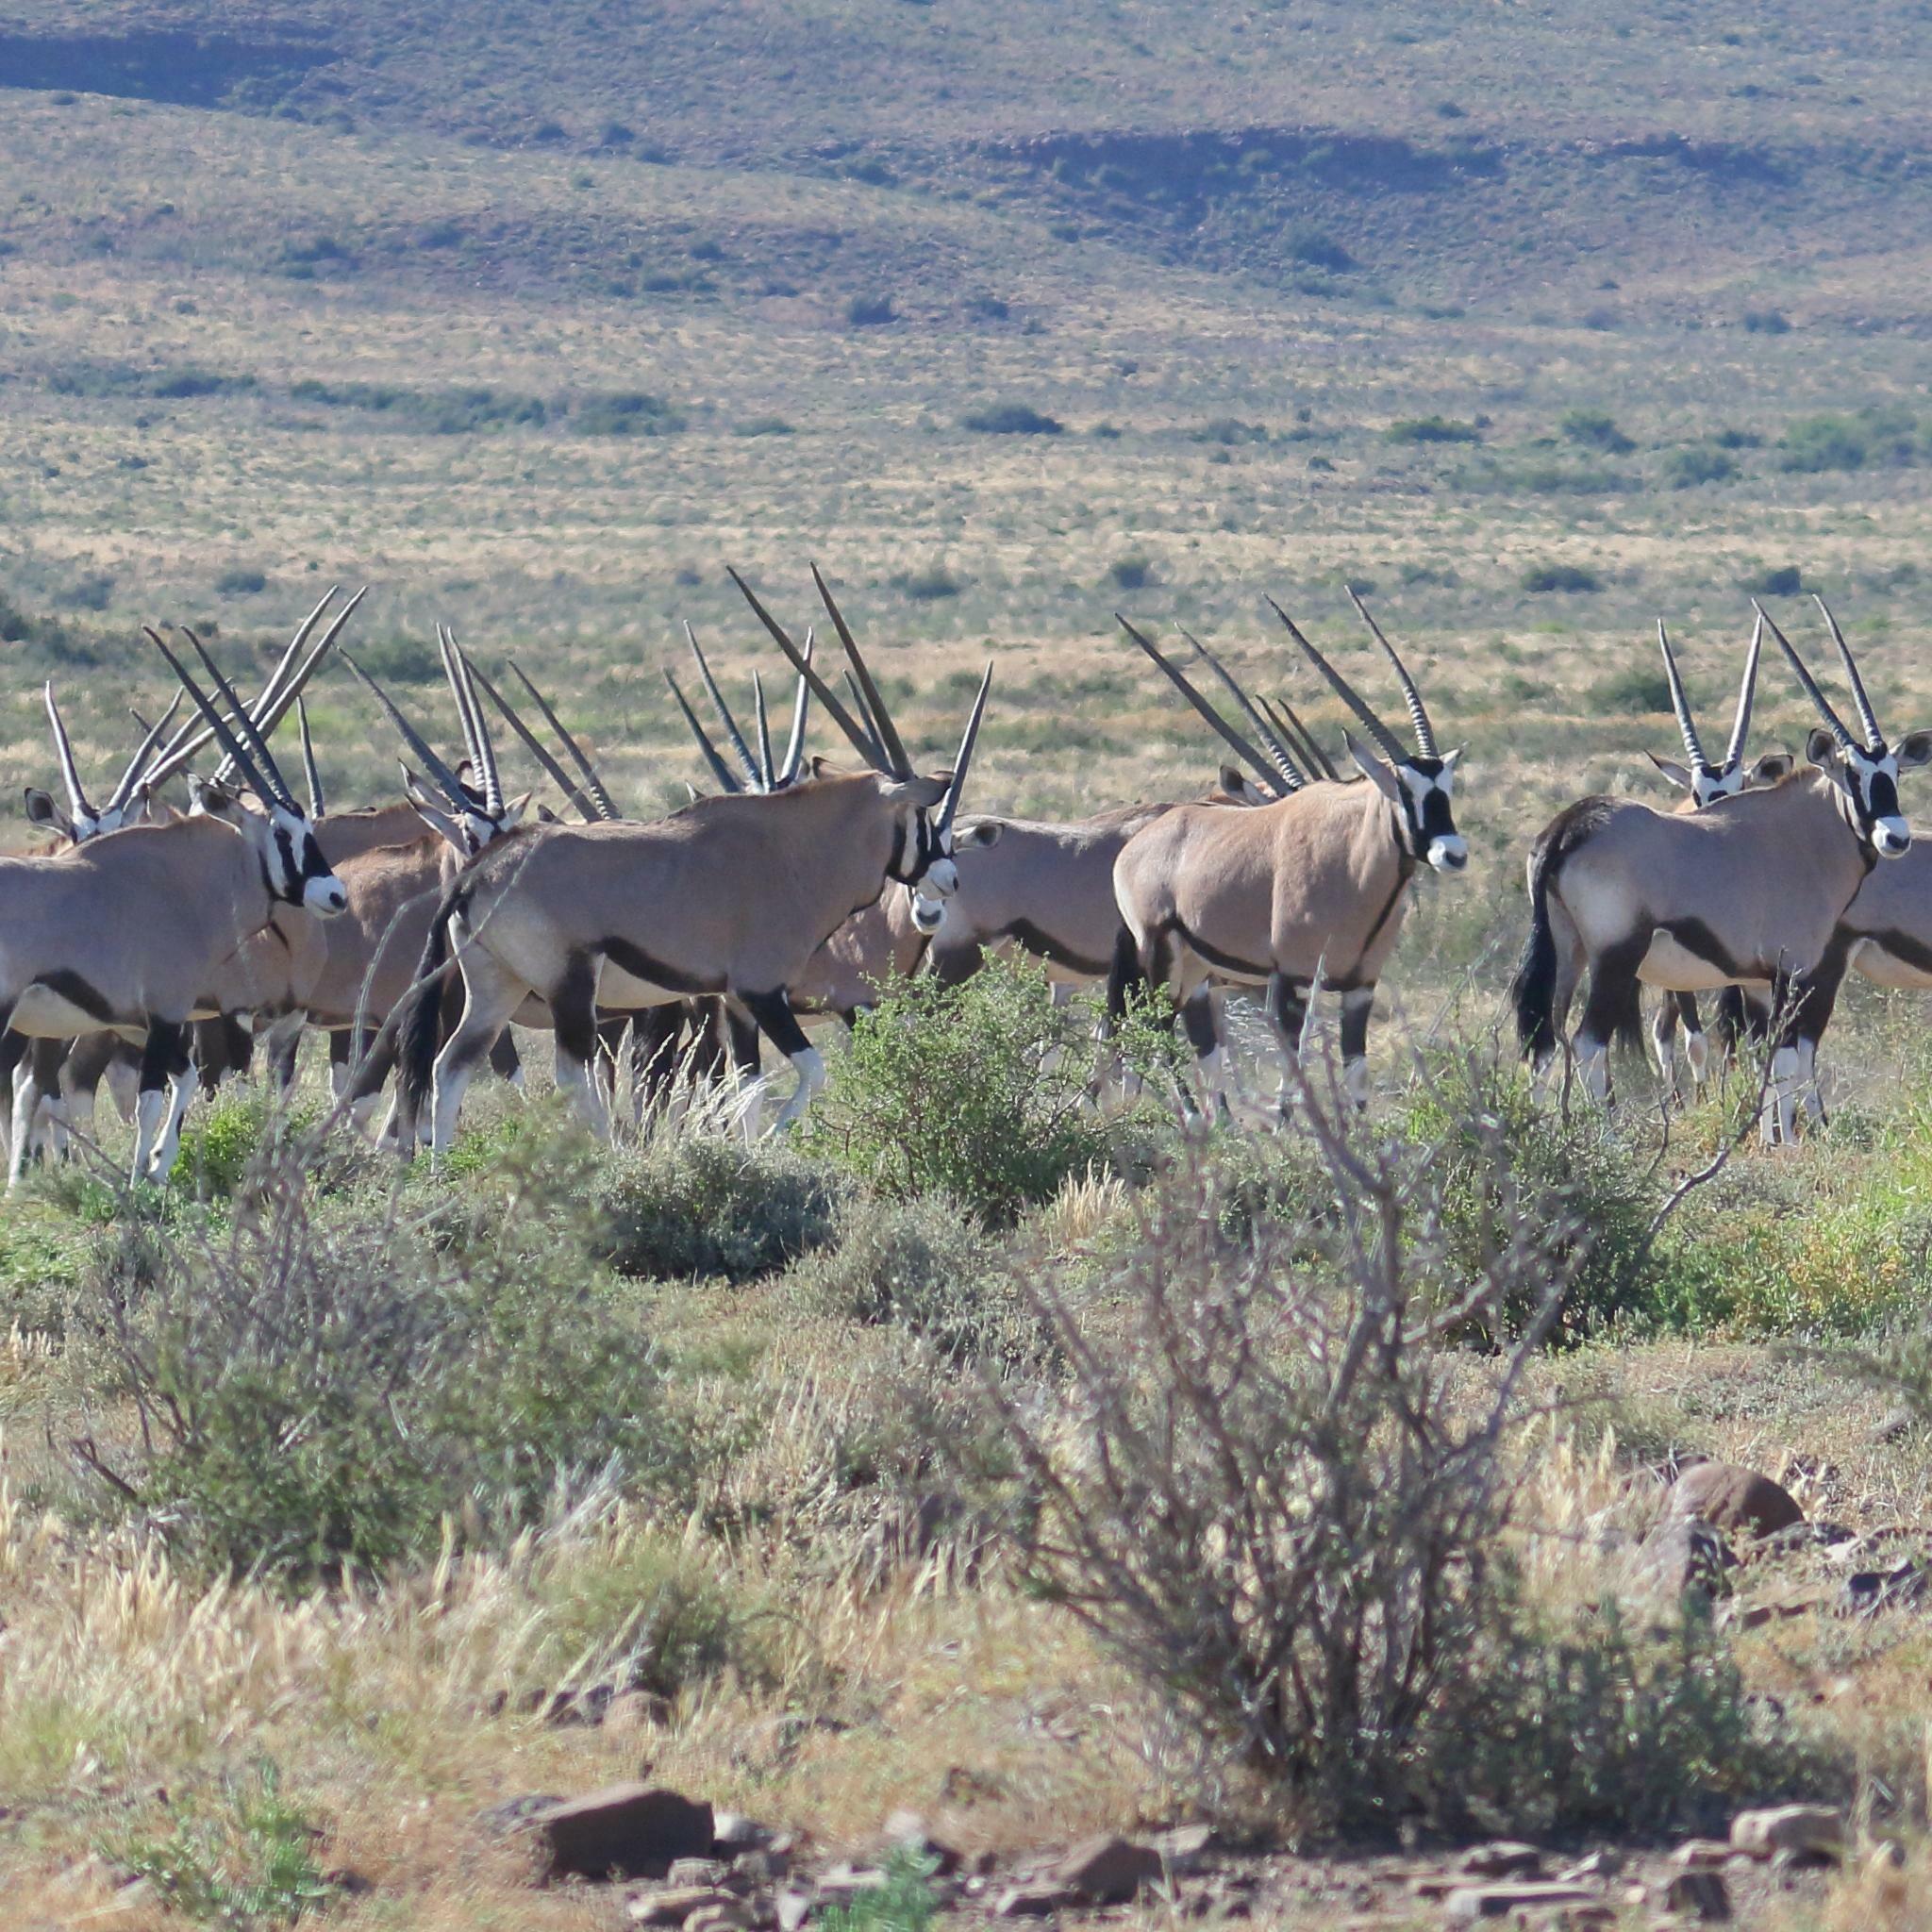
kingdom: Animalia
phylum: Chordata
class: Mammalia
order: Artiodactyla
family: Bovidae
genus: Oryx
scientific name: Oryx gazella
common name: Gemsbok
